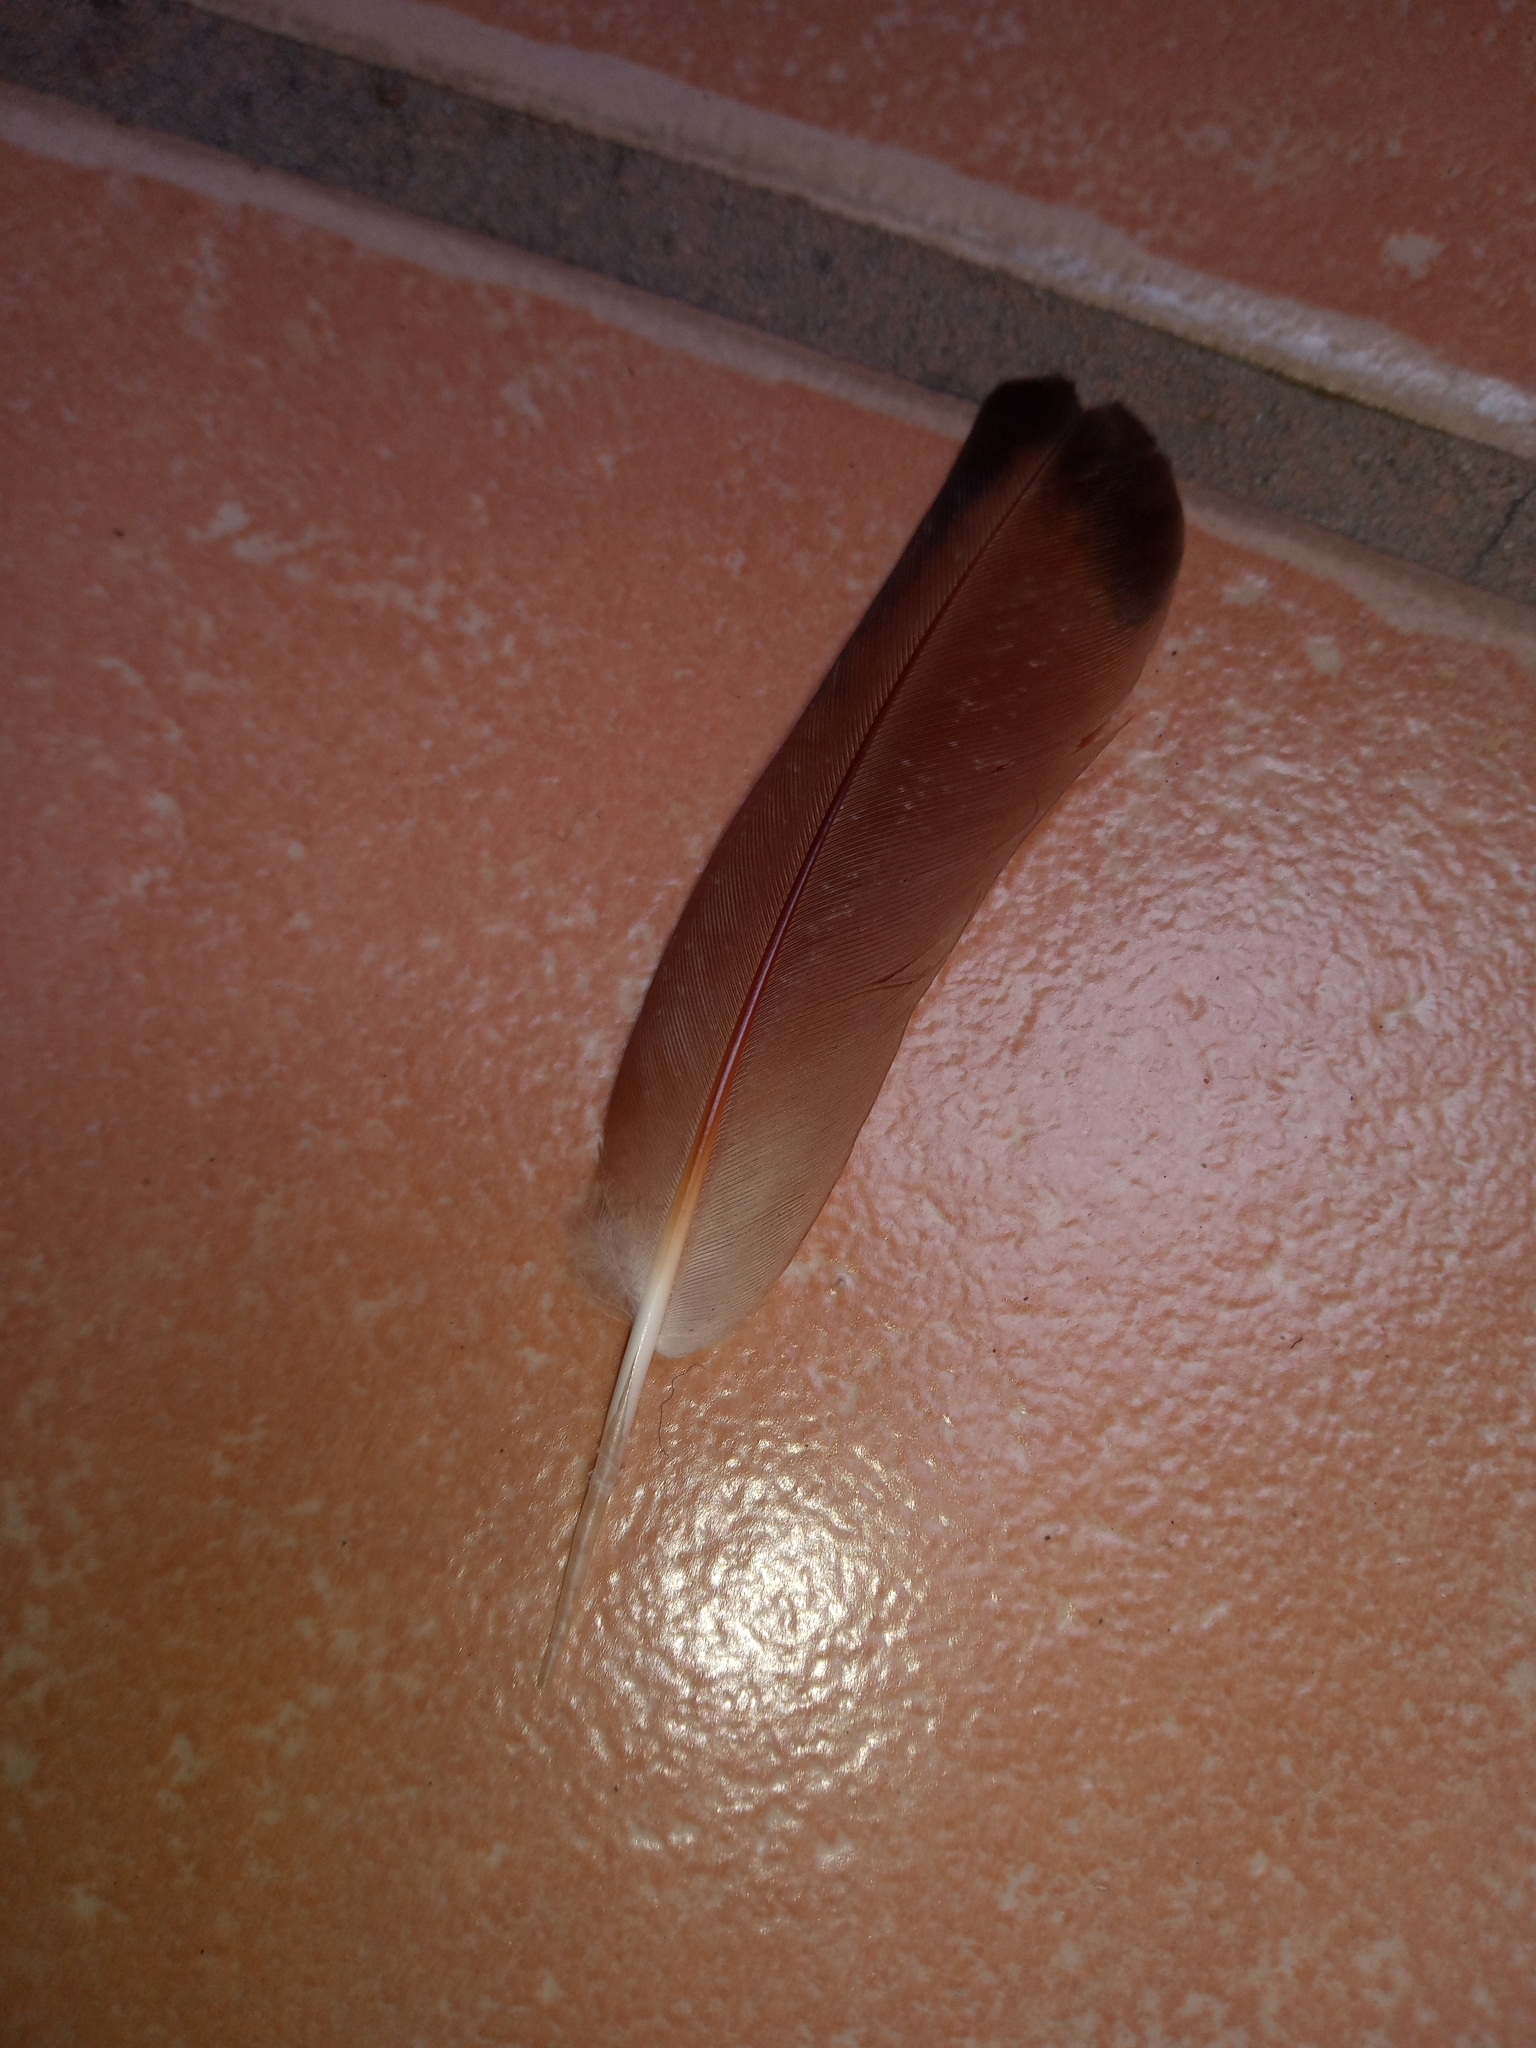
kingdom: Animalia
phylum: Chordata
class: Aves
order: Columbiformes
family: Columbidae
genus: Columbina
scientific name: Columbina inca
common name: Inca dove
